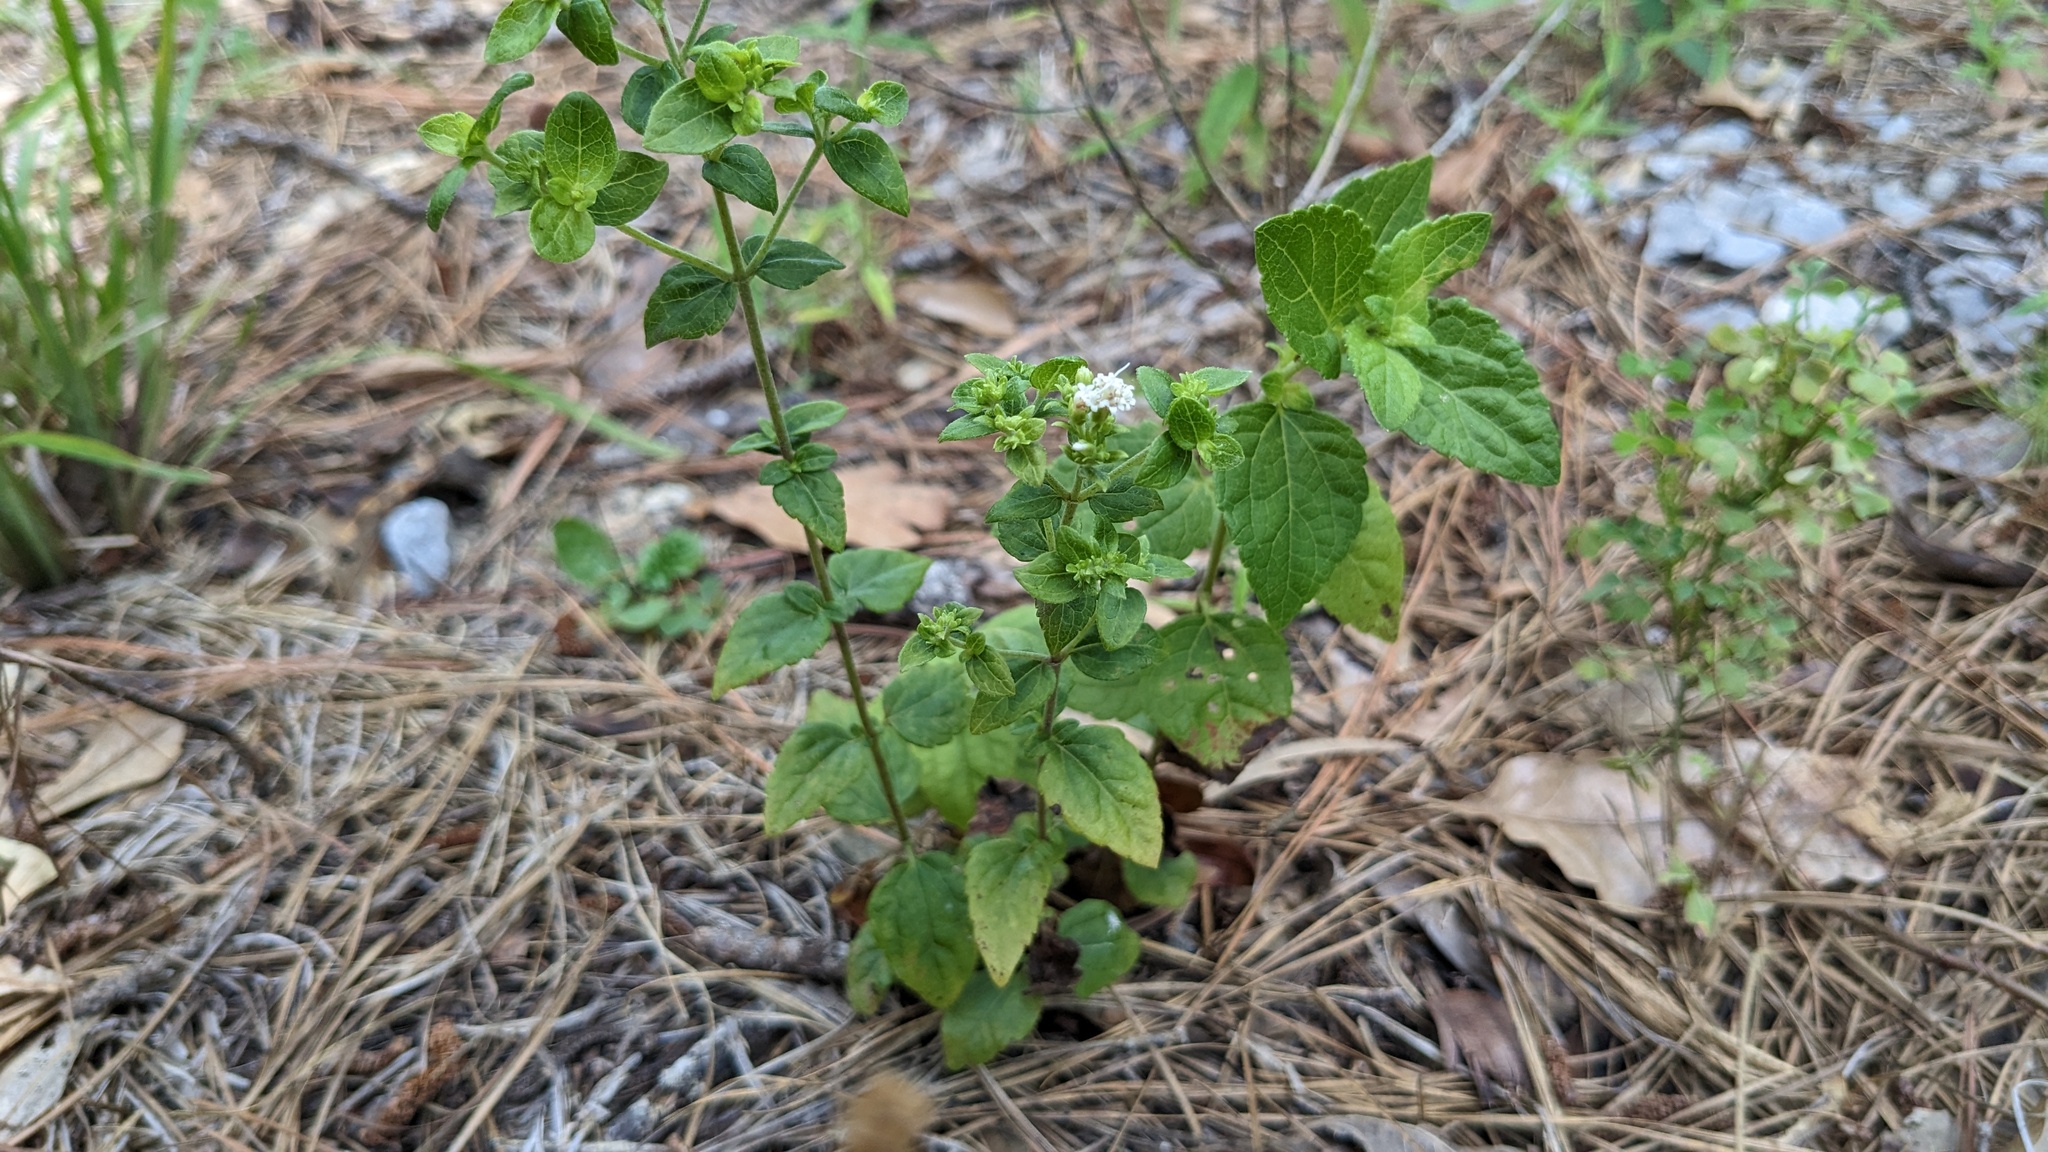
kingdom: Plantae
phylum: Tracheophyta
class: Magnoliopsida
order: Asterales
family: Asteraceae
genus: Ageratina
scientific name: Ageratina aromatica
